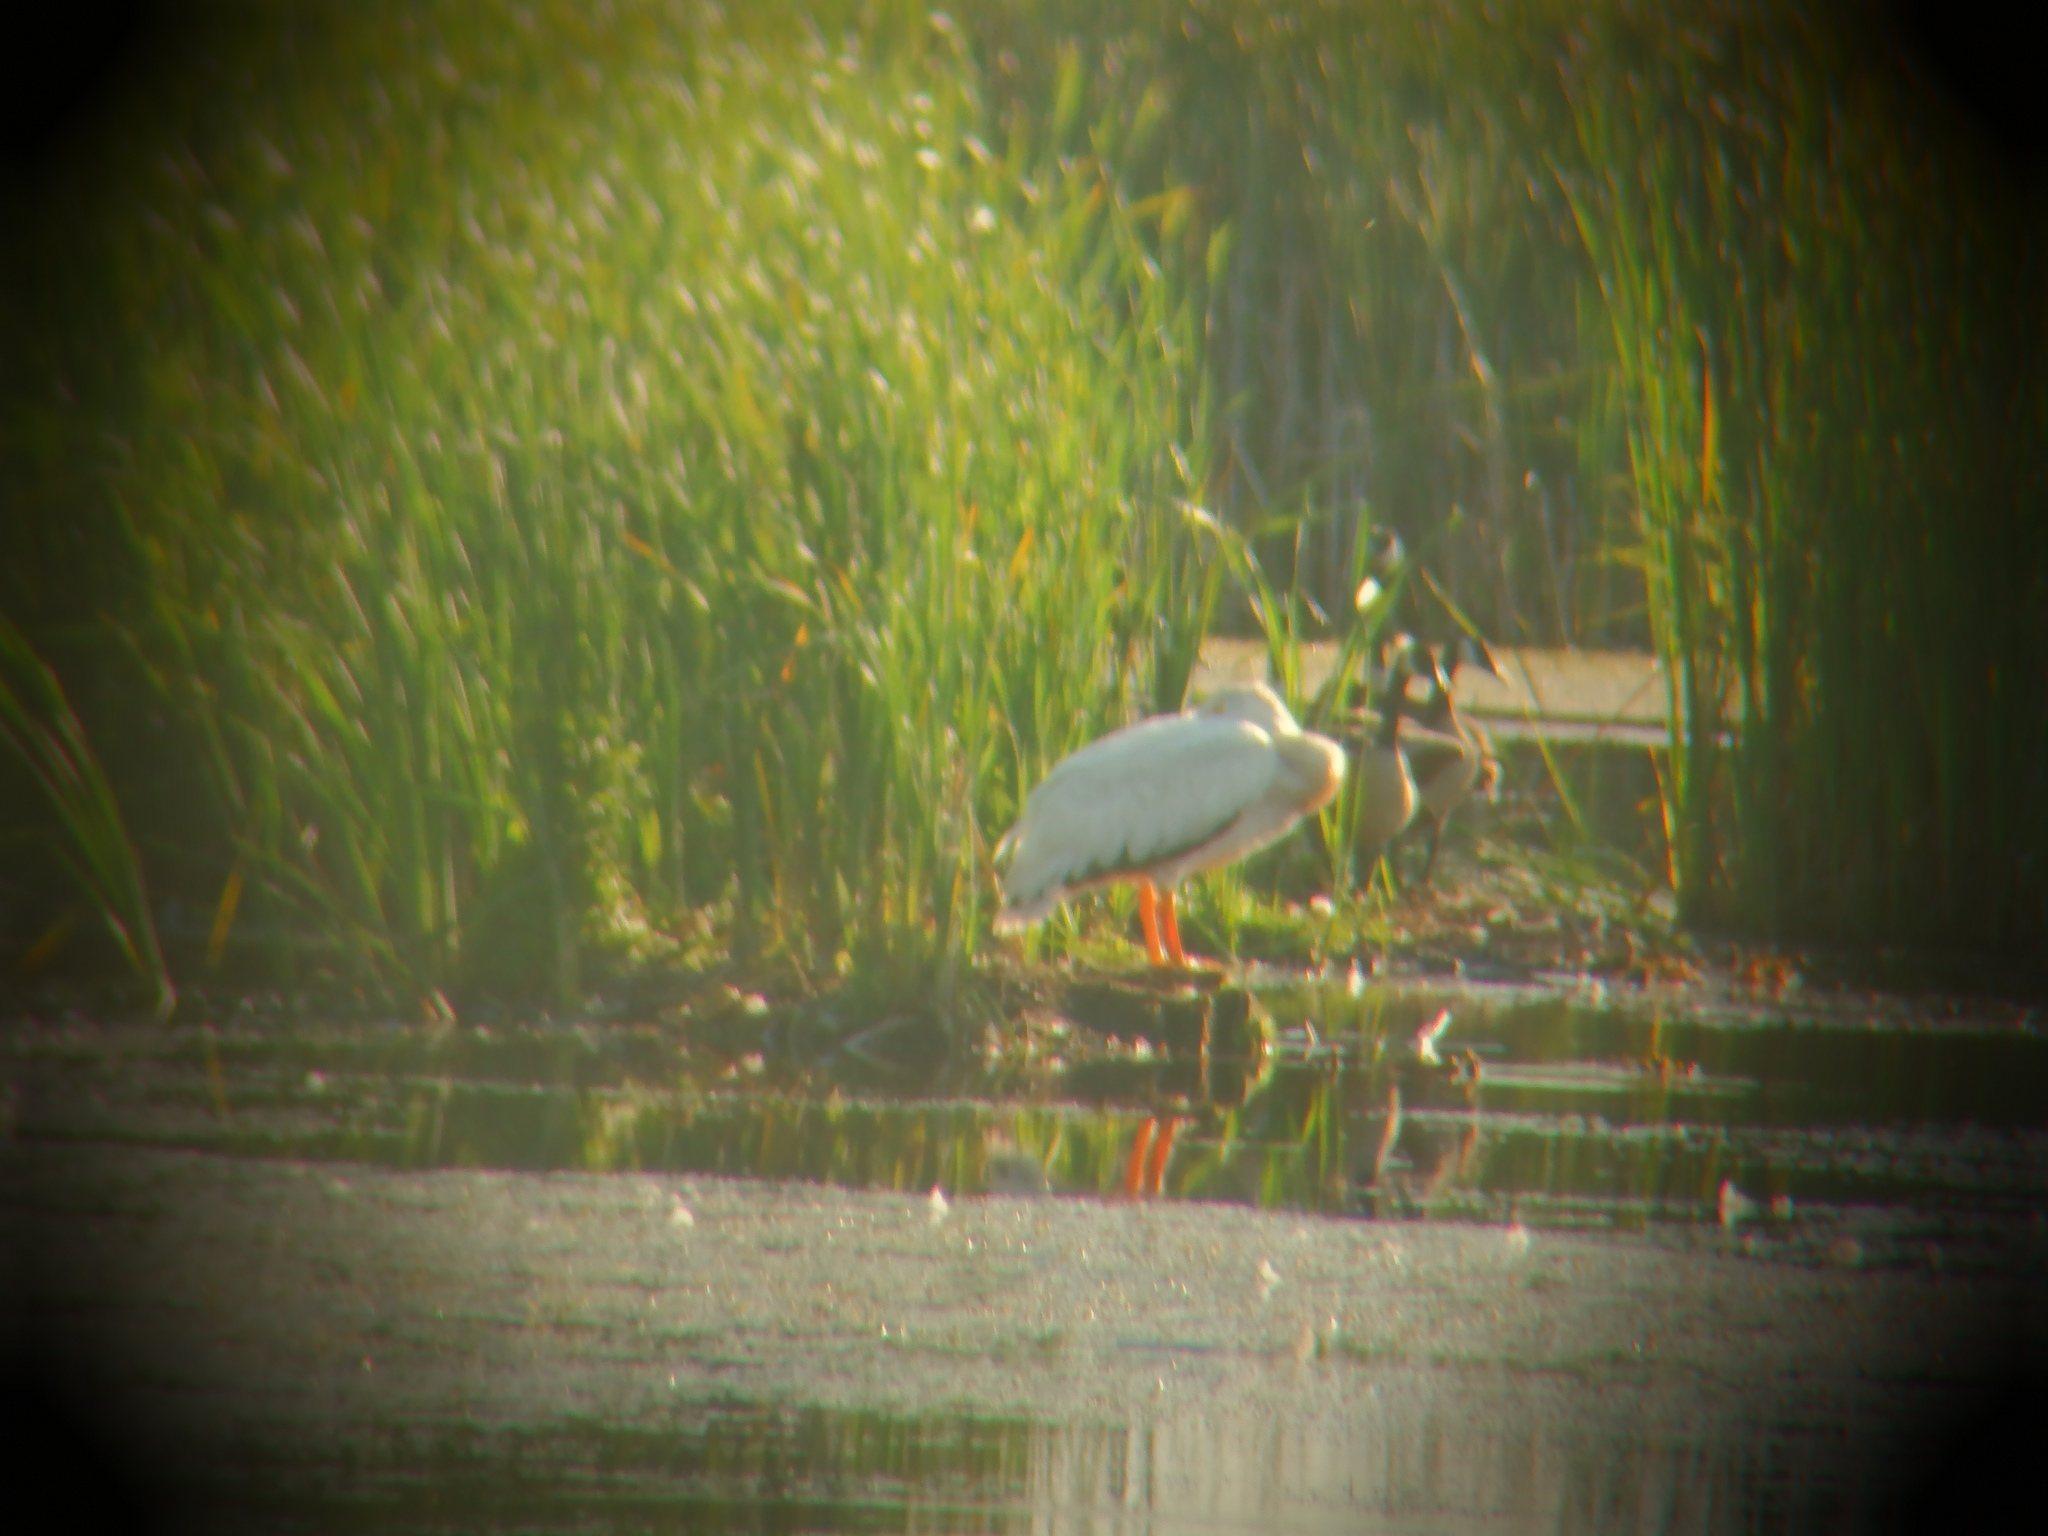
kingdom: Animalia
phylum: Chordata
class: Aves
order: Anseriformes
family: Anatidae
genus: Branta
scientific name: Branta canadensis
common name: Canada goose
